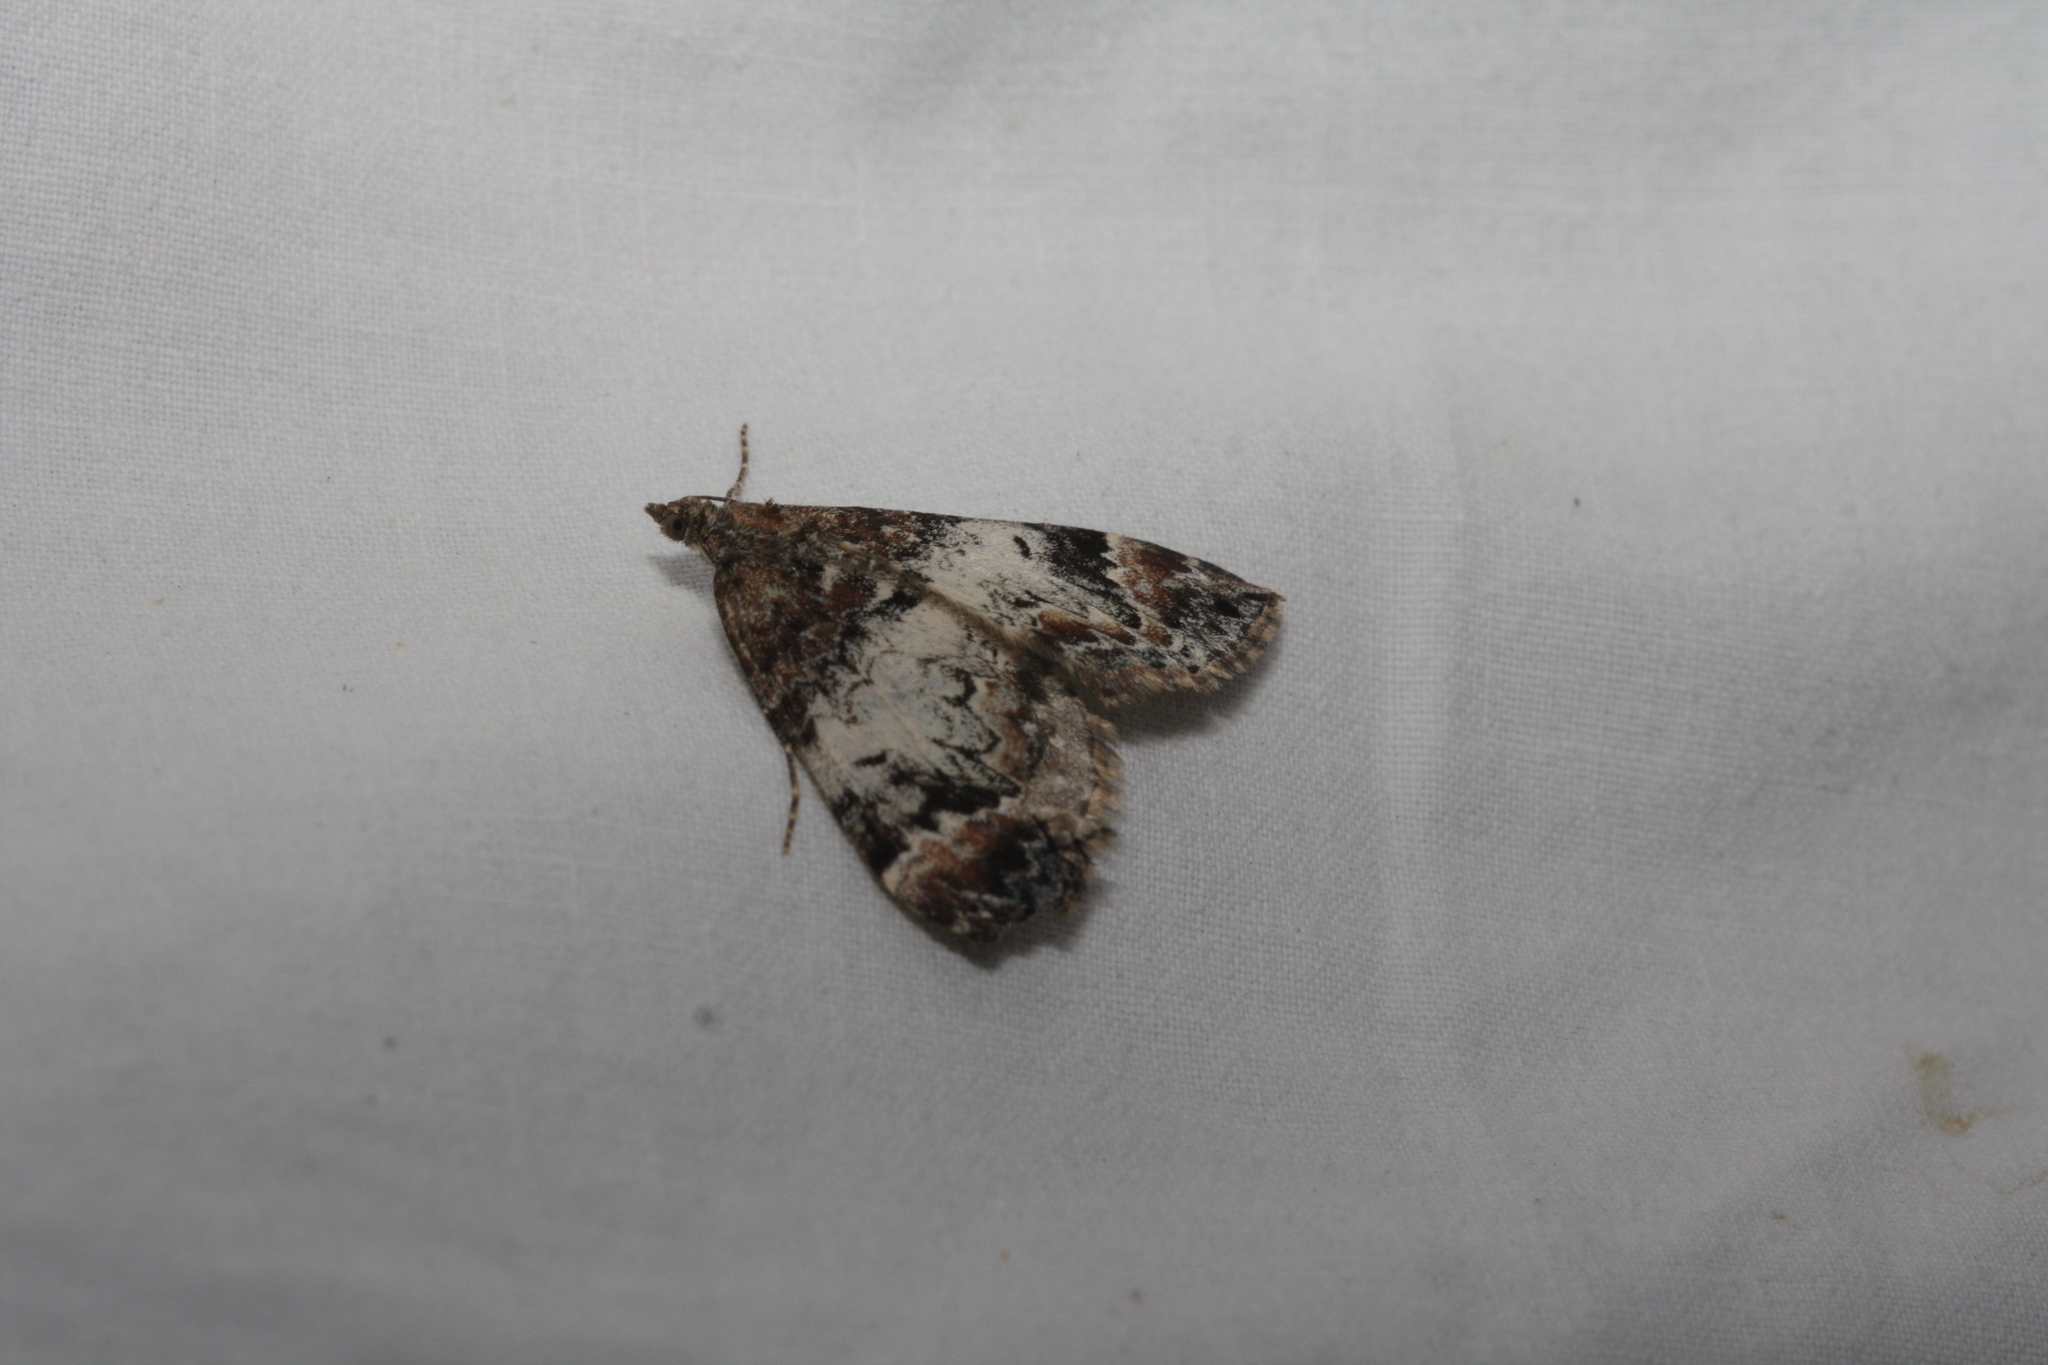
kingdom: Animalia
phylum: Arthropoda
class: Insecta
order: Lepidoptera
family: Geometridae
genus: Dysstroma
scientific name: Dysstroma truncata
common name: Common marbled carpet
